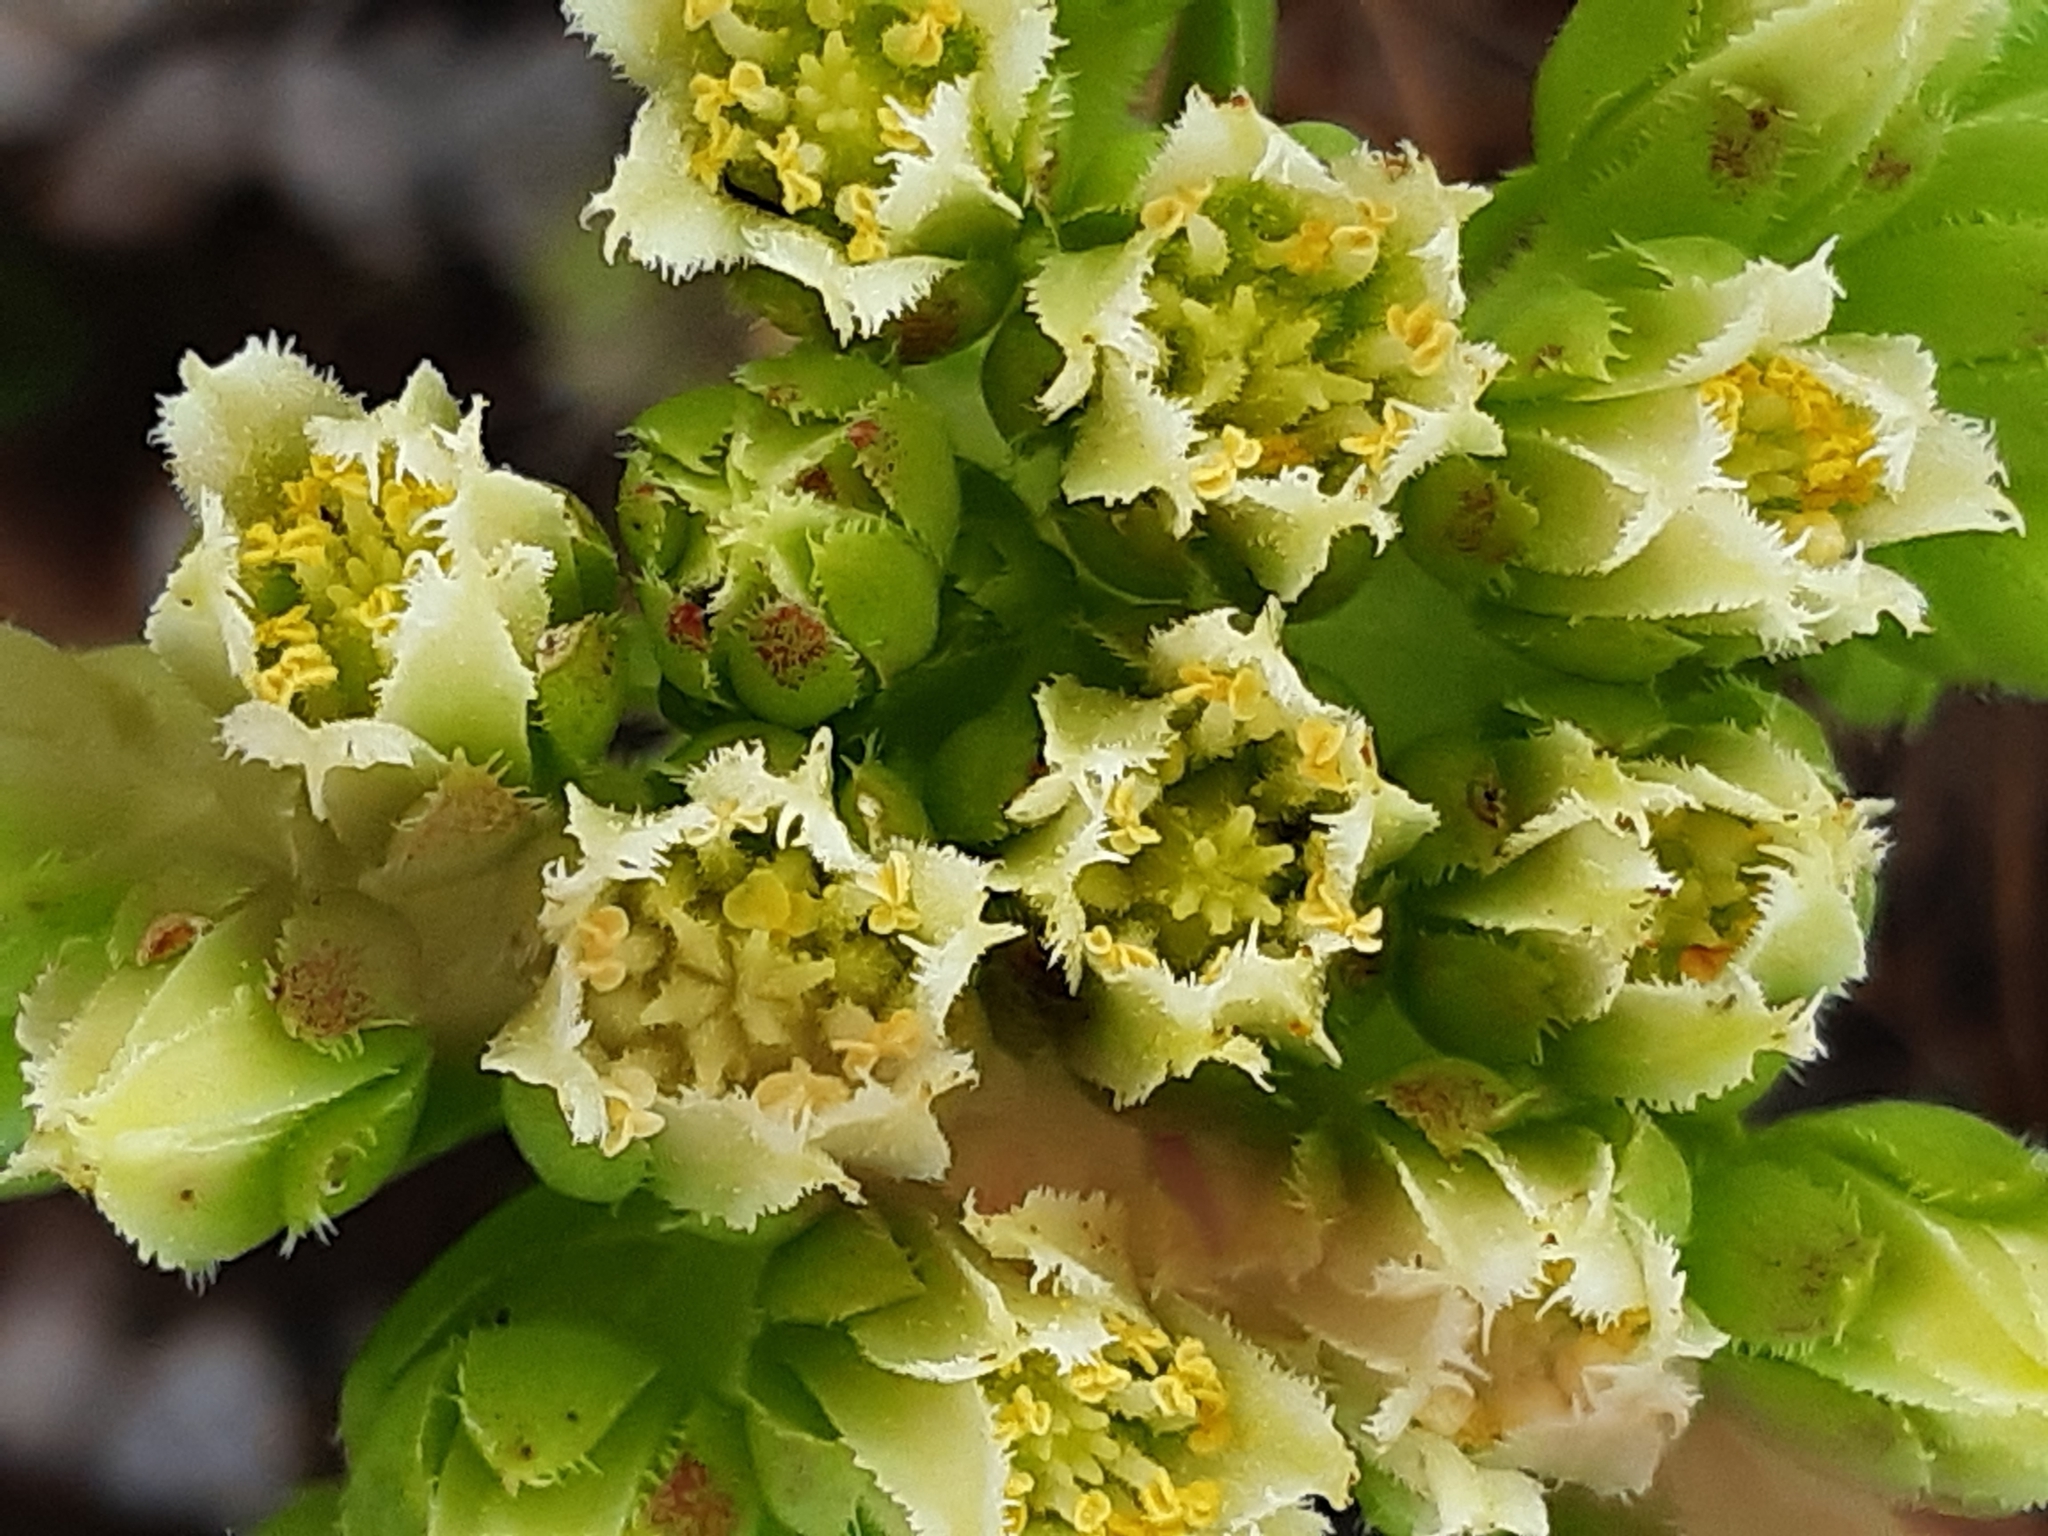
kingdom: Plantae
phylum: Tracheophyta
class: Magnoliopsida
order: Saxifragales
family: Crassulaceae
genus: Sempervivum
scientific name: Sempervivum globiferum
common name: Rolling hen-and-chicks
